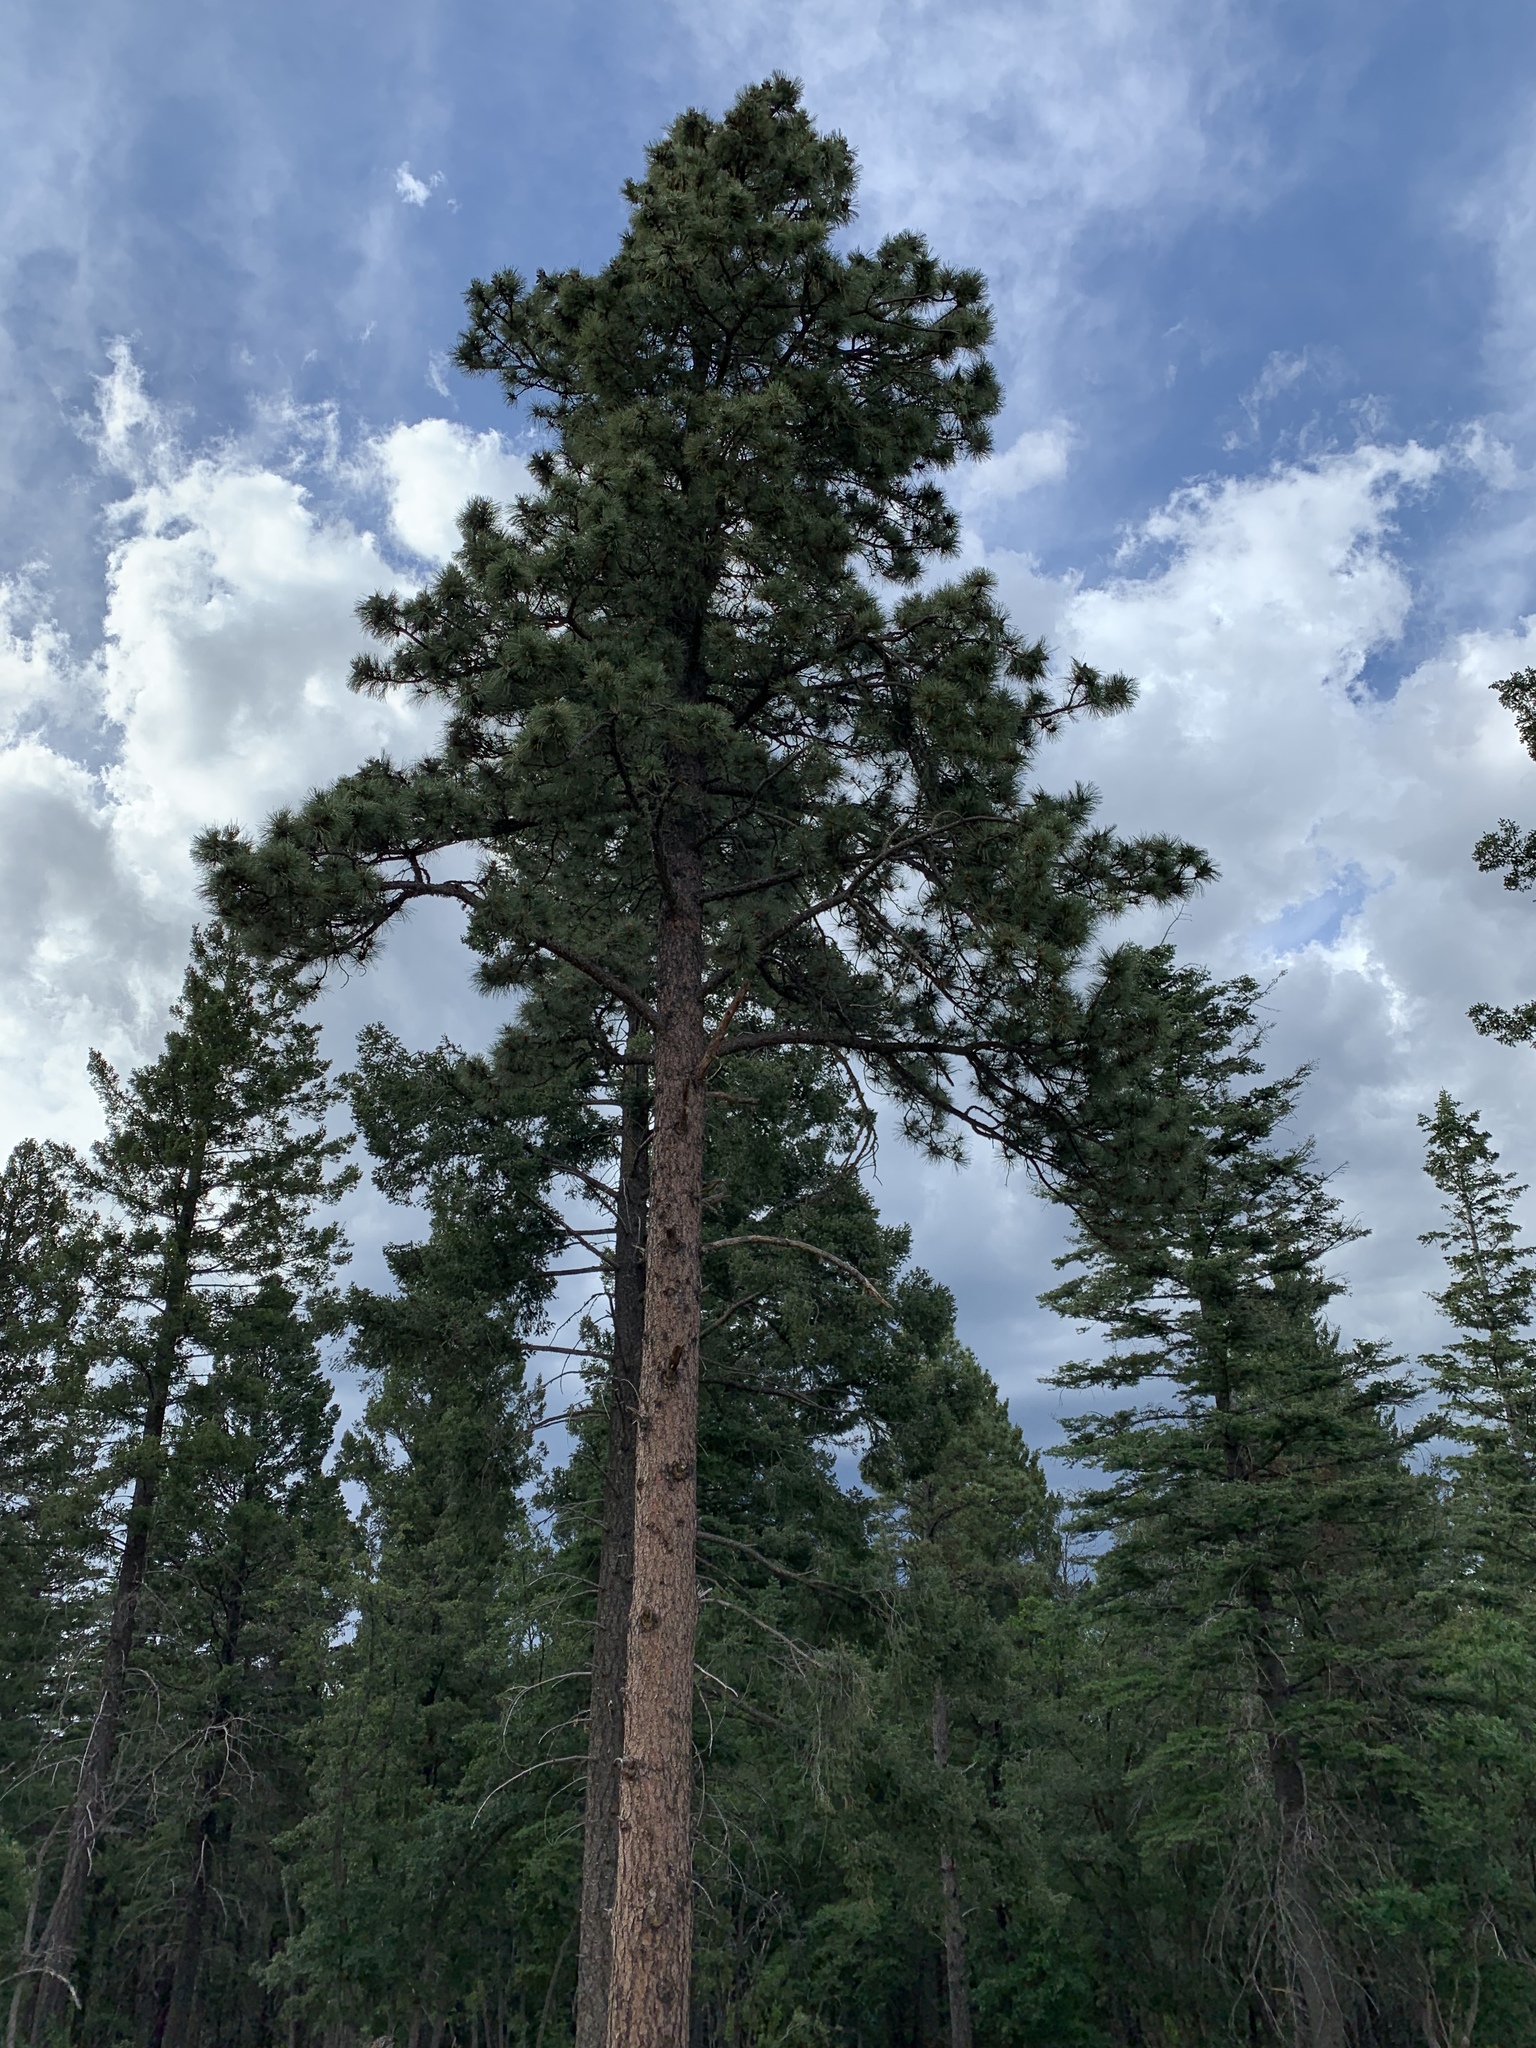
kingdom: Plantae
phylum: Tracheophyta
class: Pinopsida
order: Pinales
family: Pinaceae
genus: Pinus
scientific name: Pinus ponderosa
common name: Western yellow-pine
